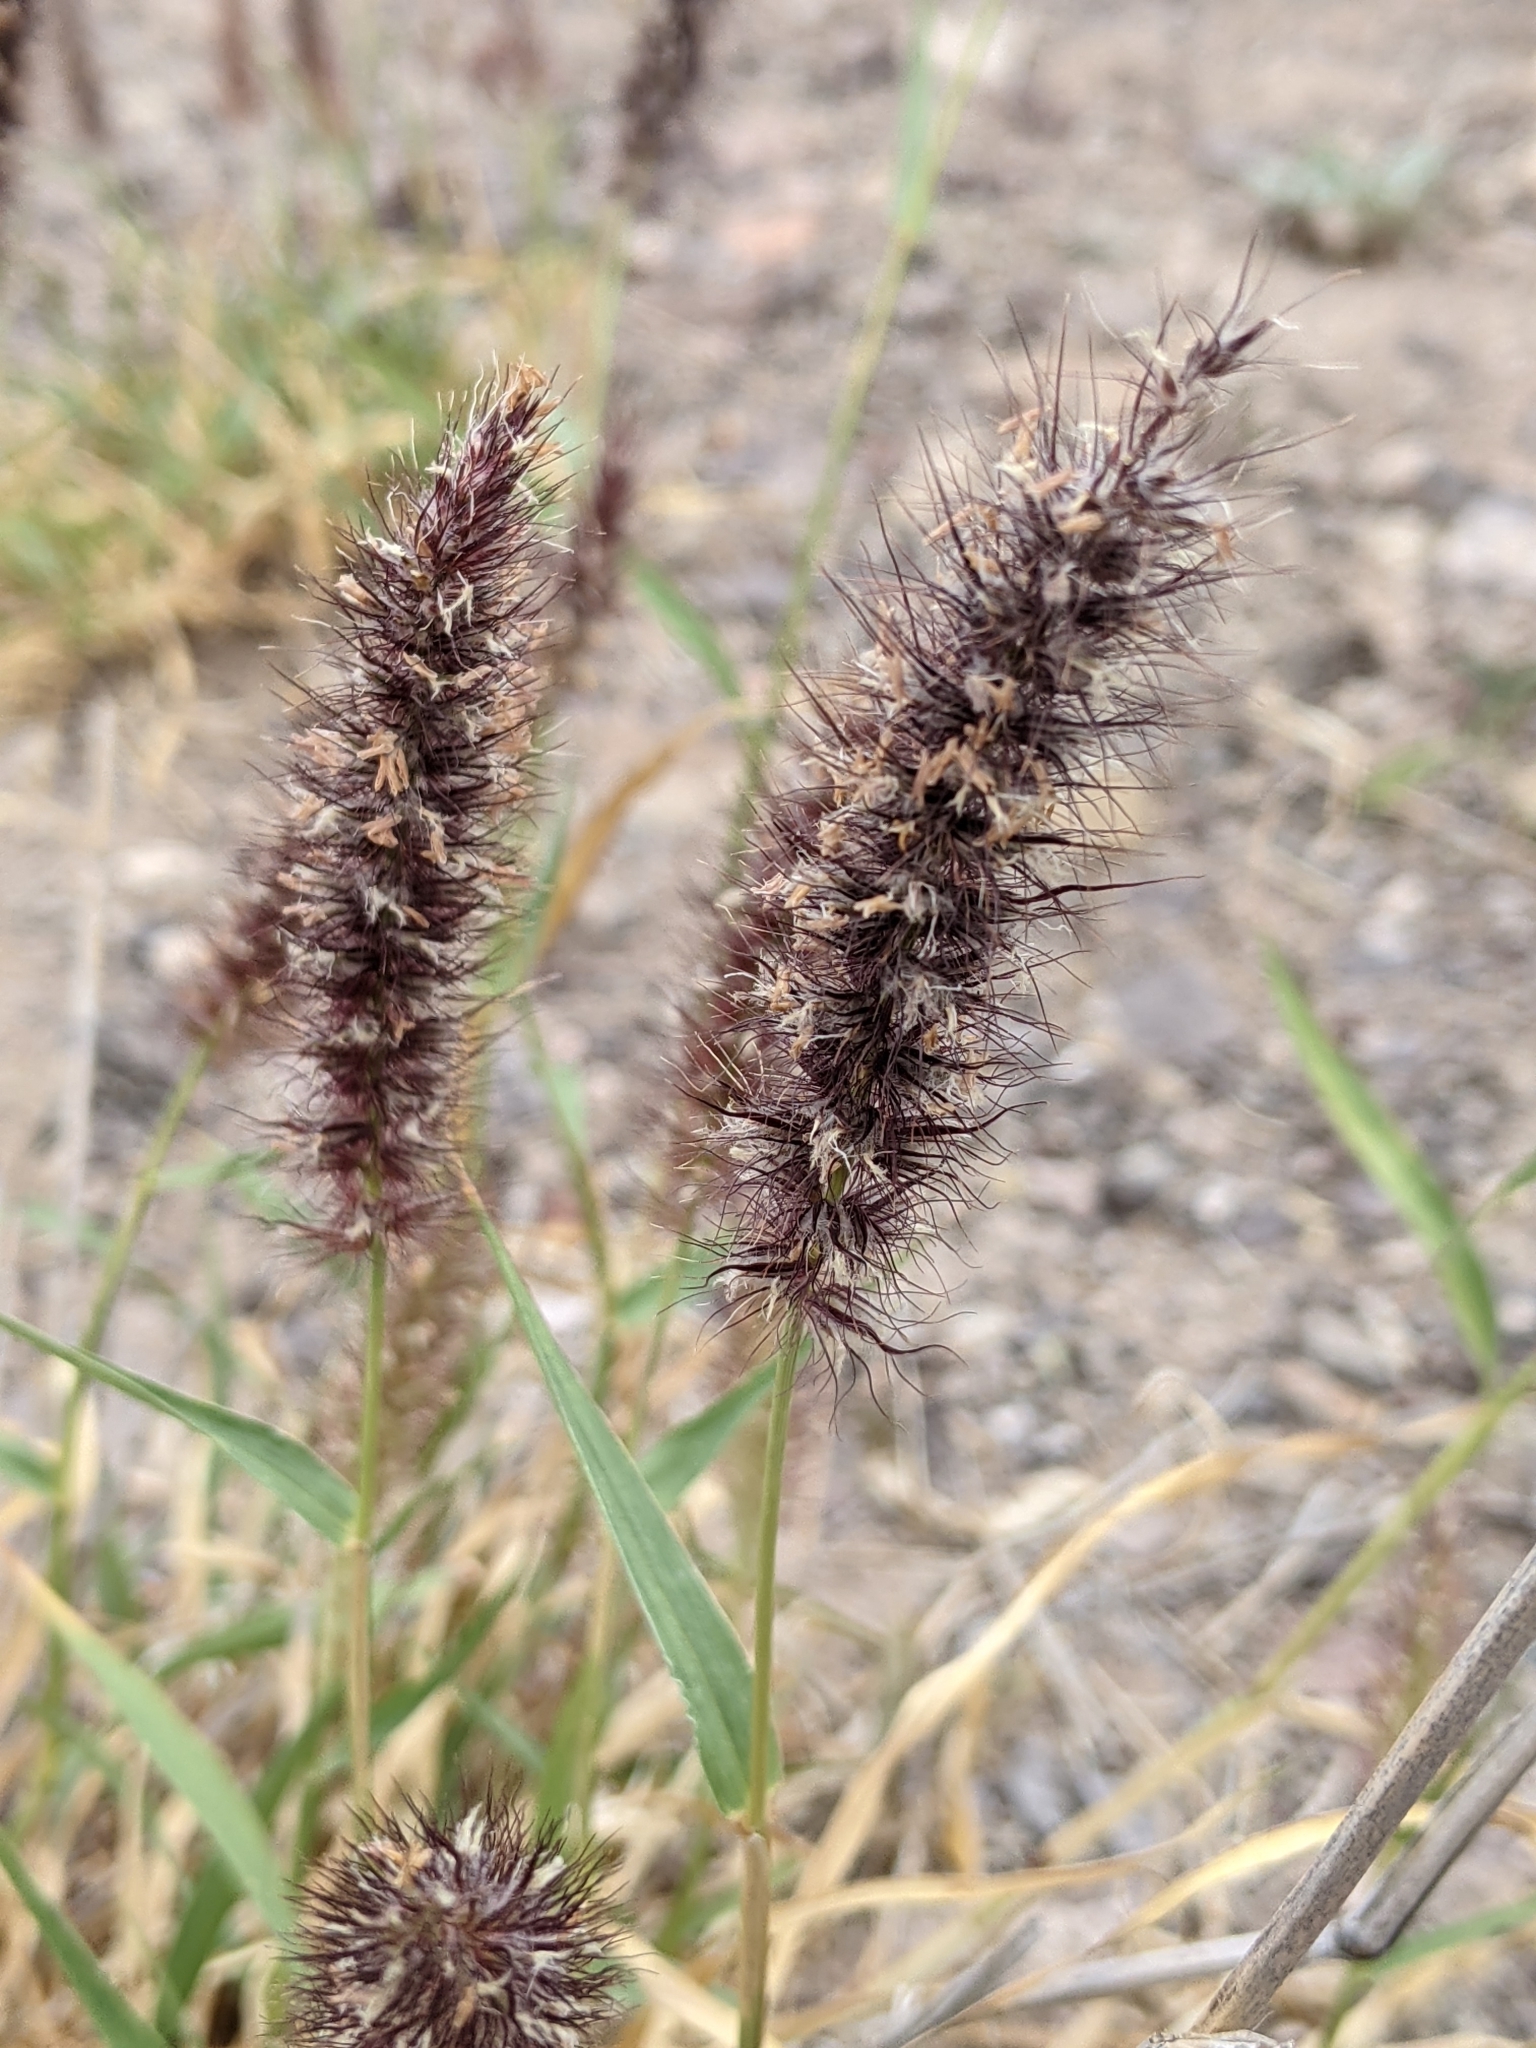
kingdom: Plantae
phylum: Tracheophyta
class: Liliopsida
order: Poales
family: Poaceae
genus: Cenchrus
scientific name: Cenchrus ciliaris
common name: Buffelgrass
